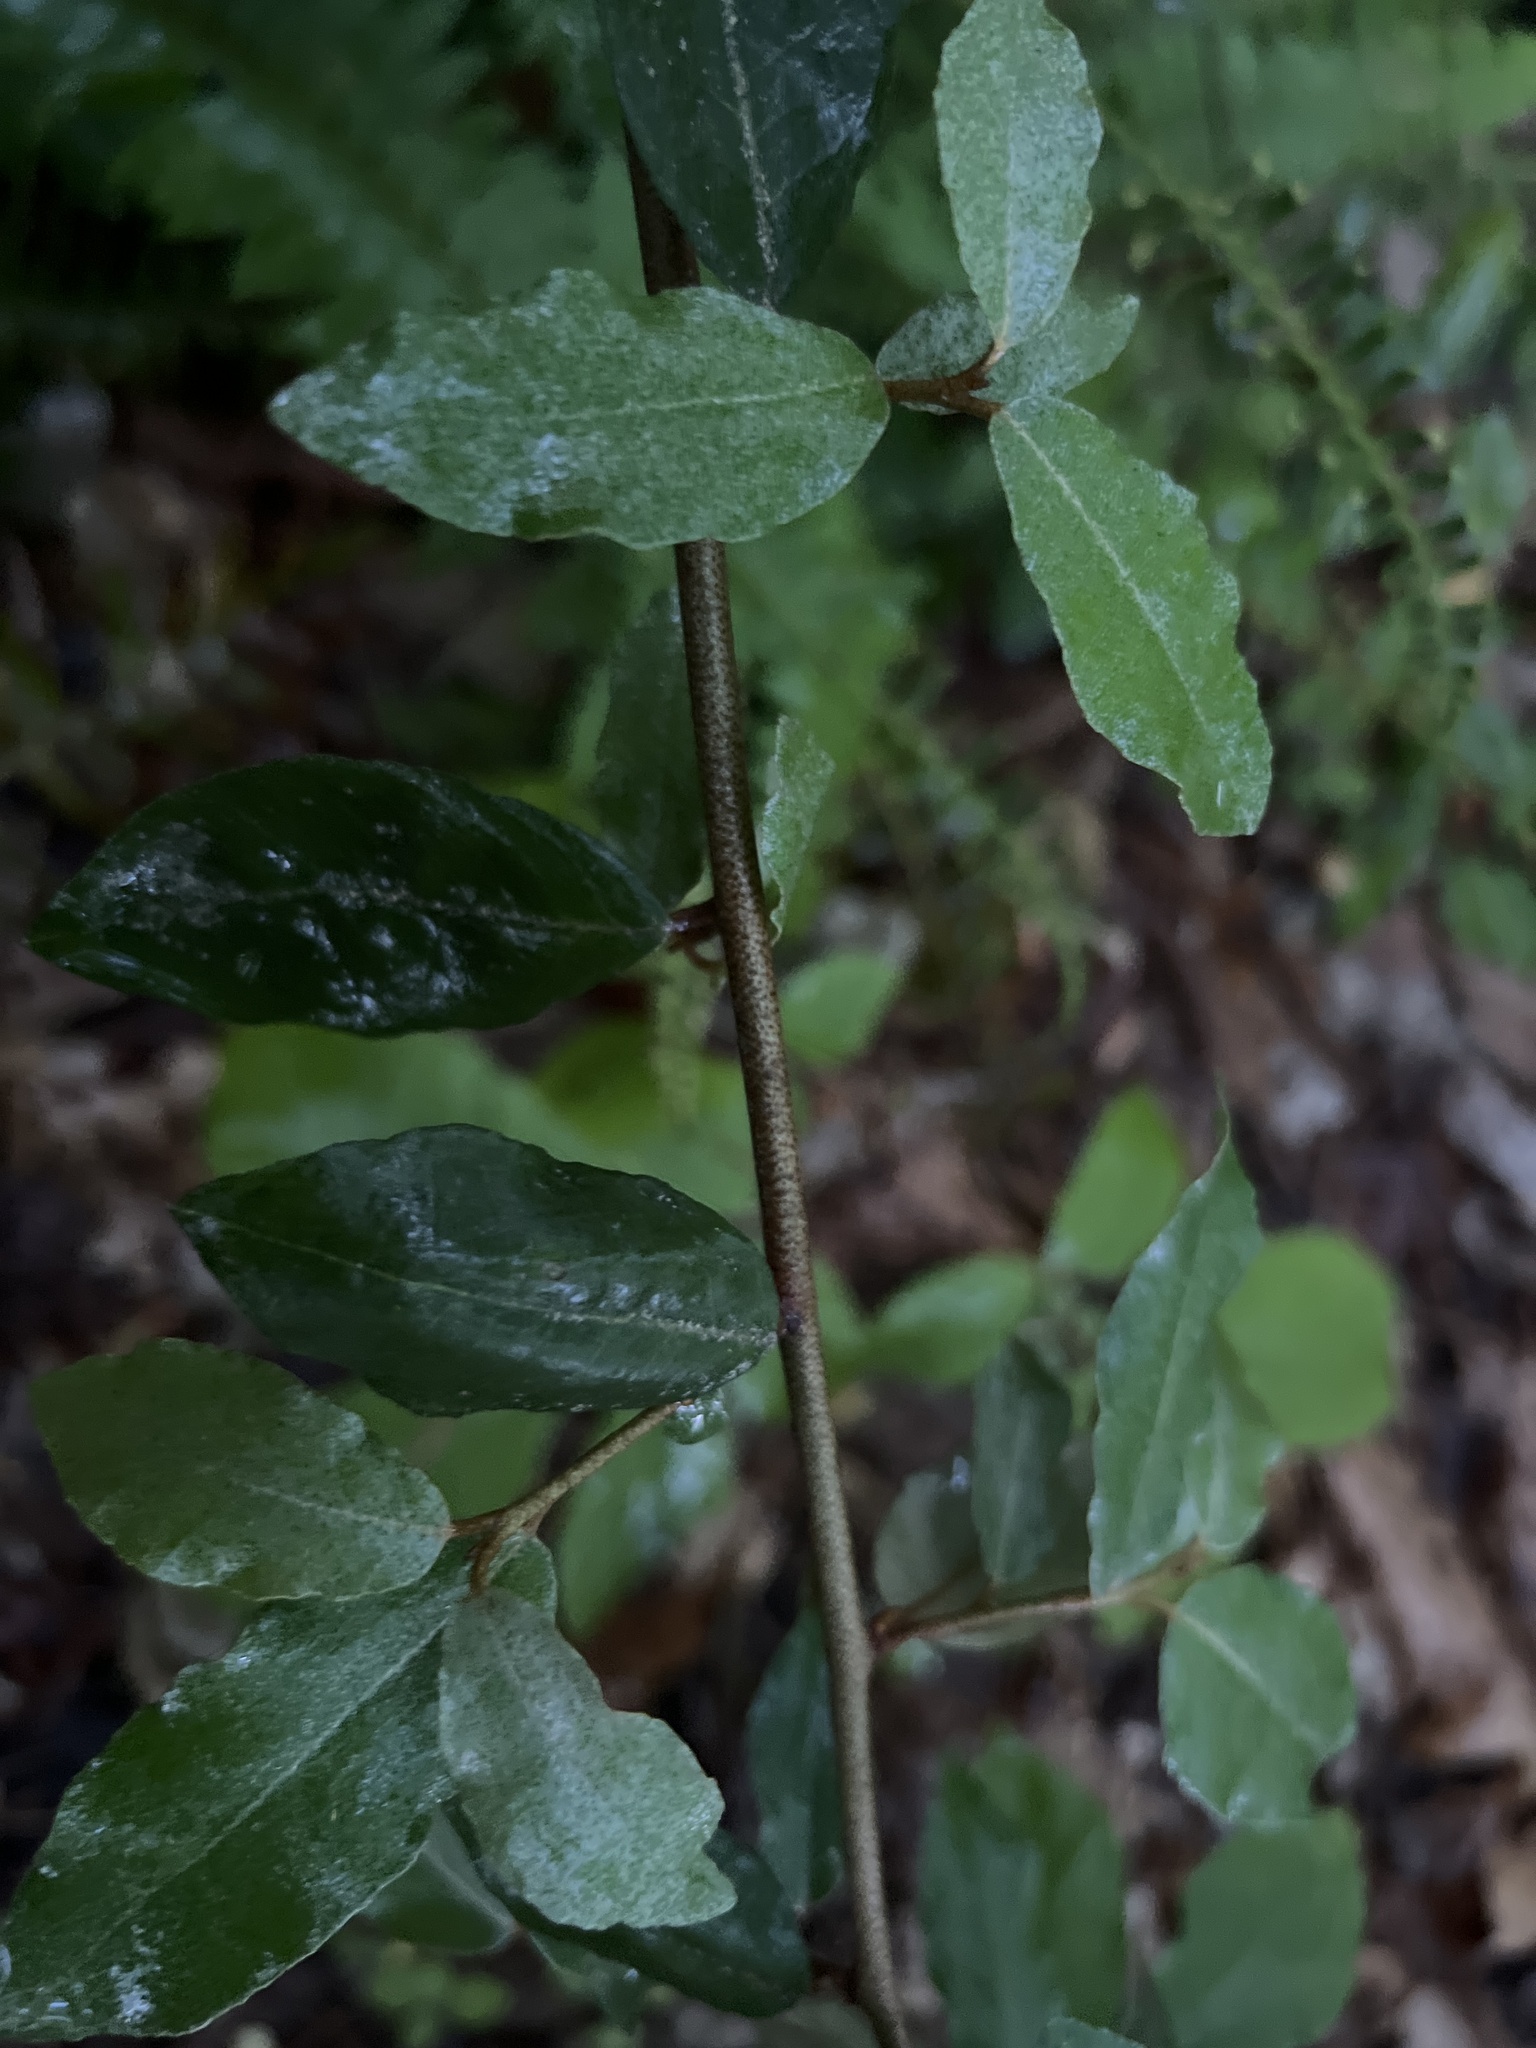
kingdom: Plantae
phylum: Tracheophyta
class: Magnoliopsida
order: Rosales
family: Elaeagnaceae
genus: Elaeagnus
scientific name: Elaeagnus pungens
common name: Spiny oleaster
